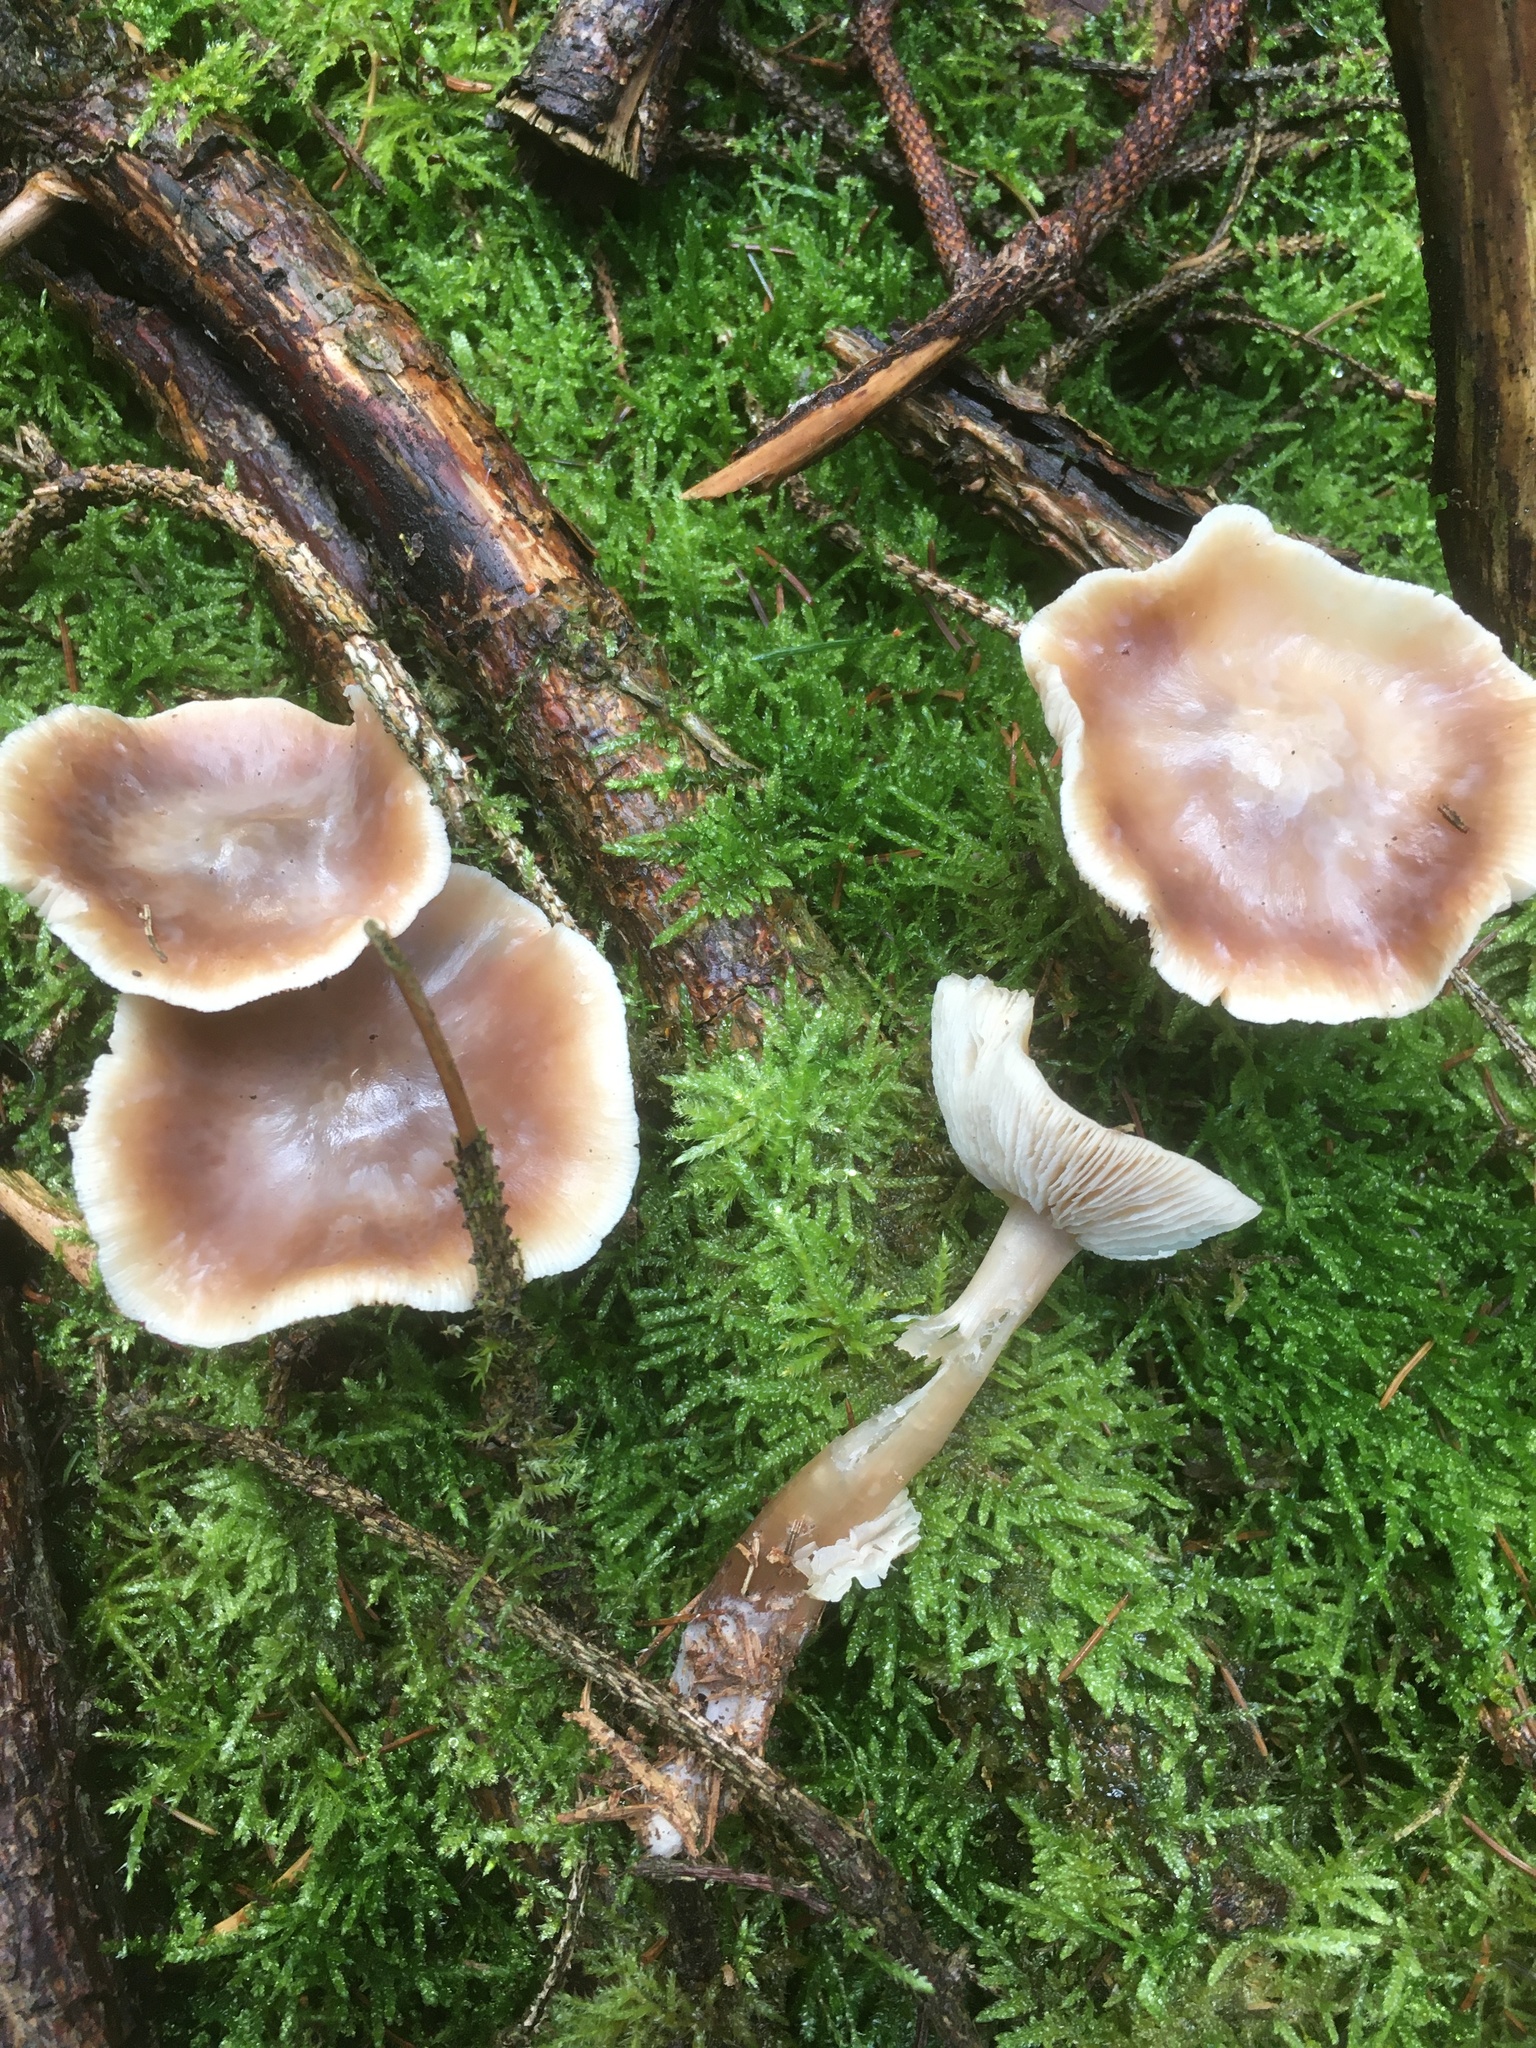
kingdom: Fungi
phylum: Basidiomycota
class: Agaricomycetes
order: Agaricales
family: Omphalotaceae
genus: Rhodocollybia
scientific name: Rhodocollybia butyracea
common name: Butter cap
